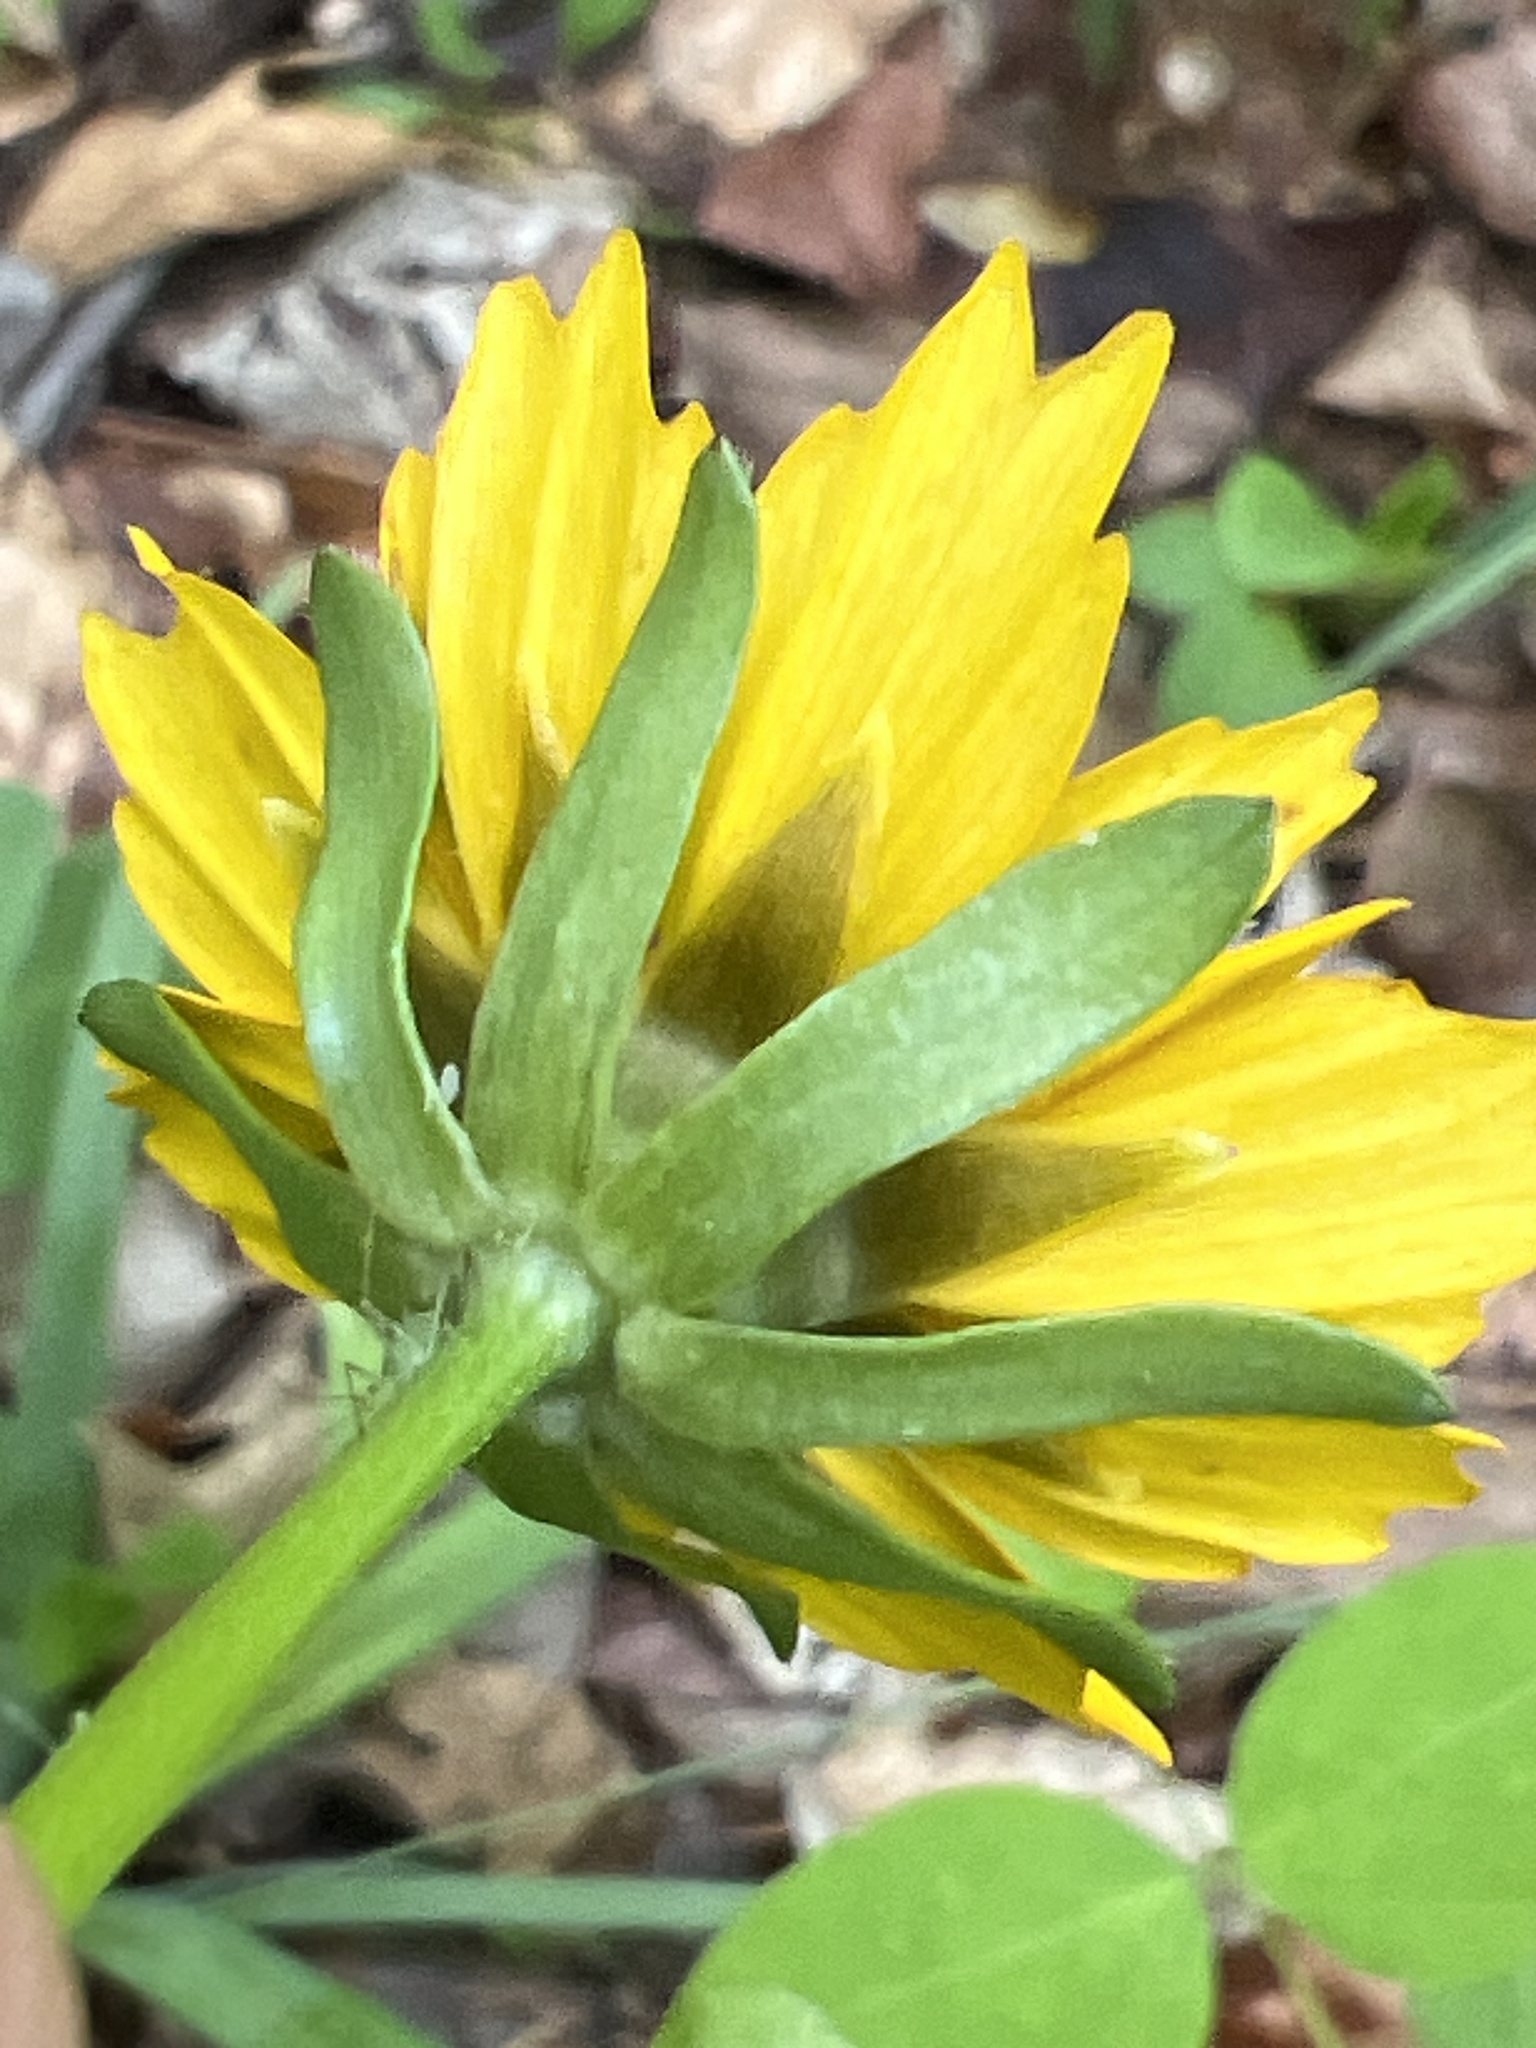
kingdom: Plantae
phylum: Tracheophyta
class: Magnoliopsida
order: Asterales
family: Asteraceae
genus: Coreopsis
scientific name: Coreopsis auriculata
